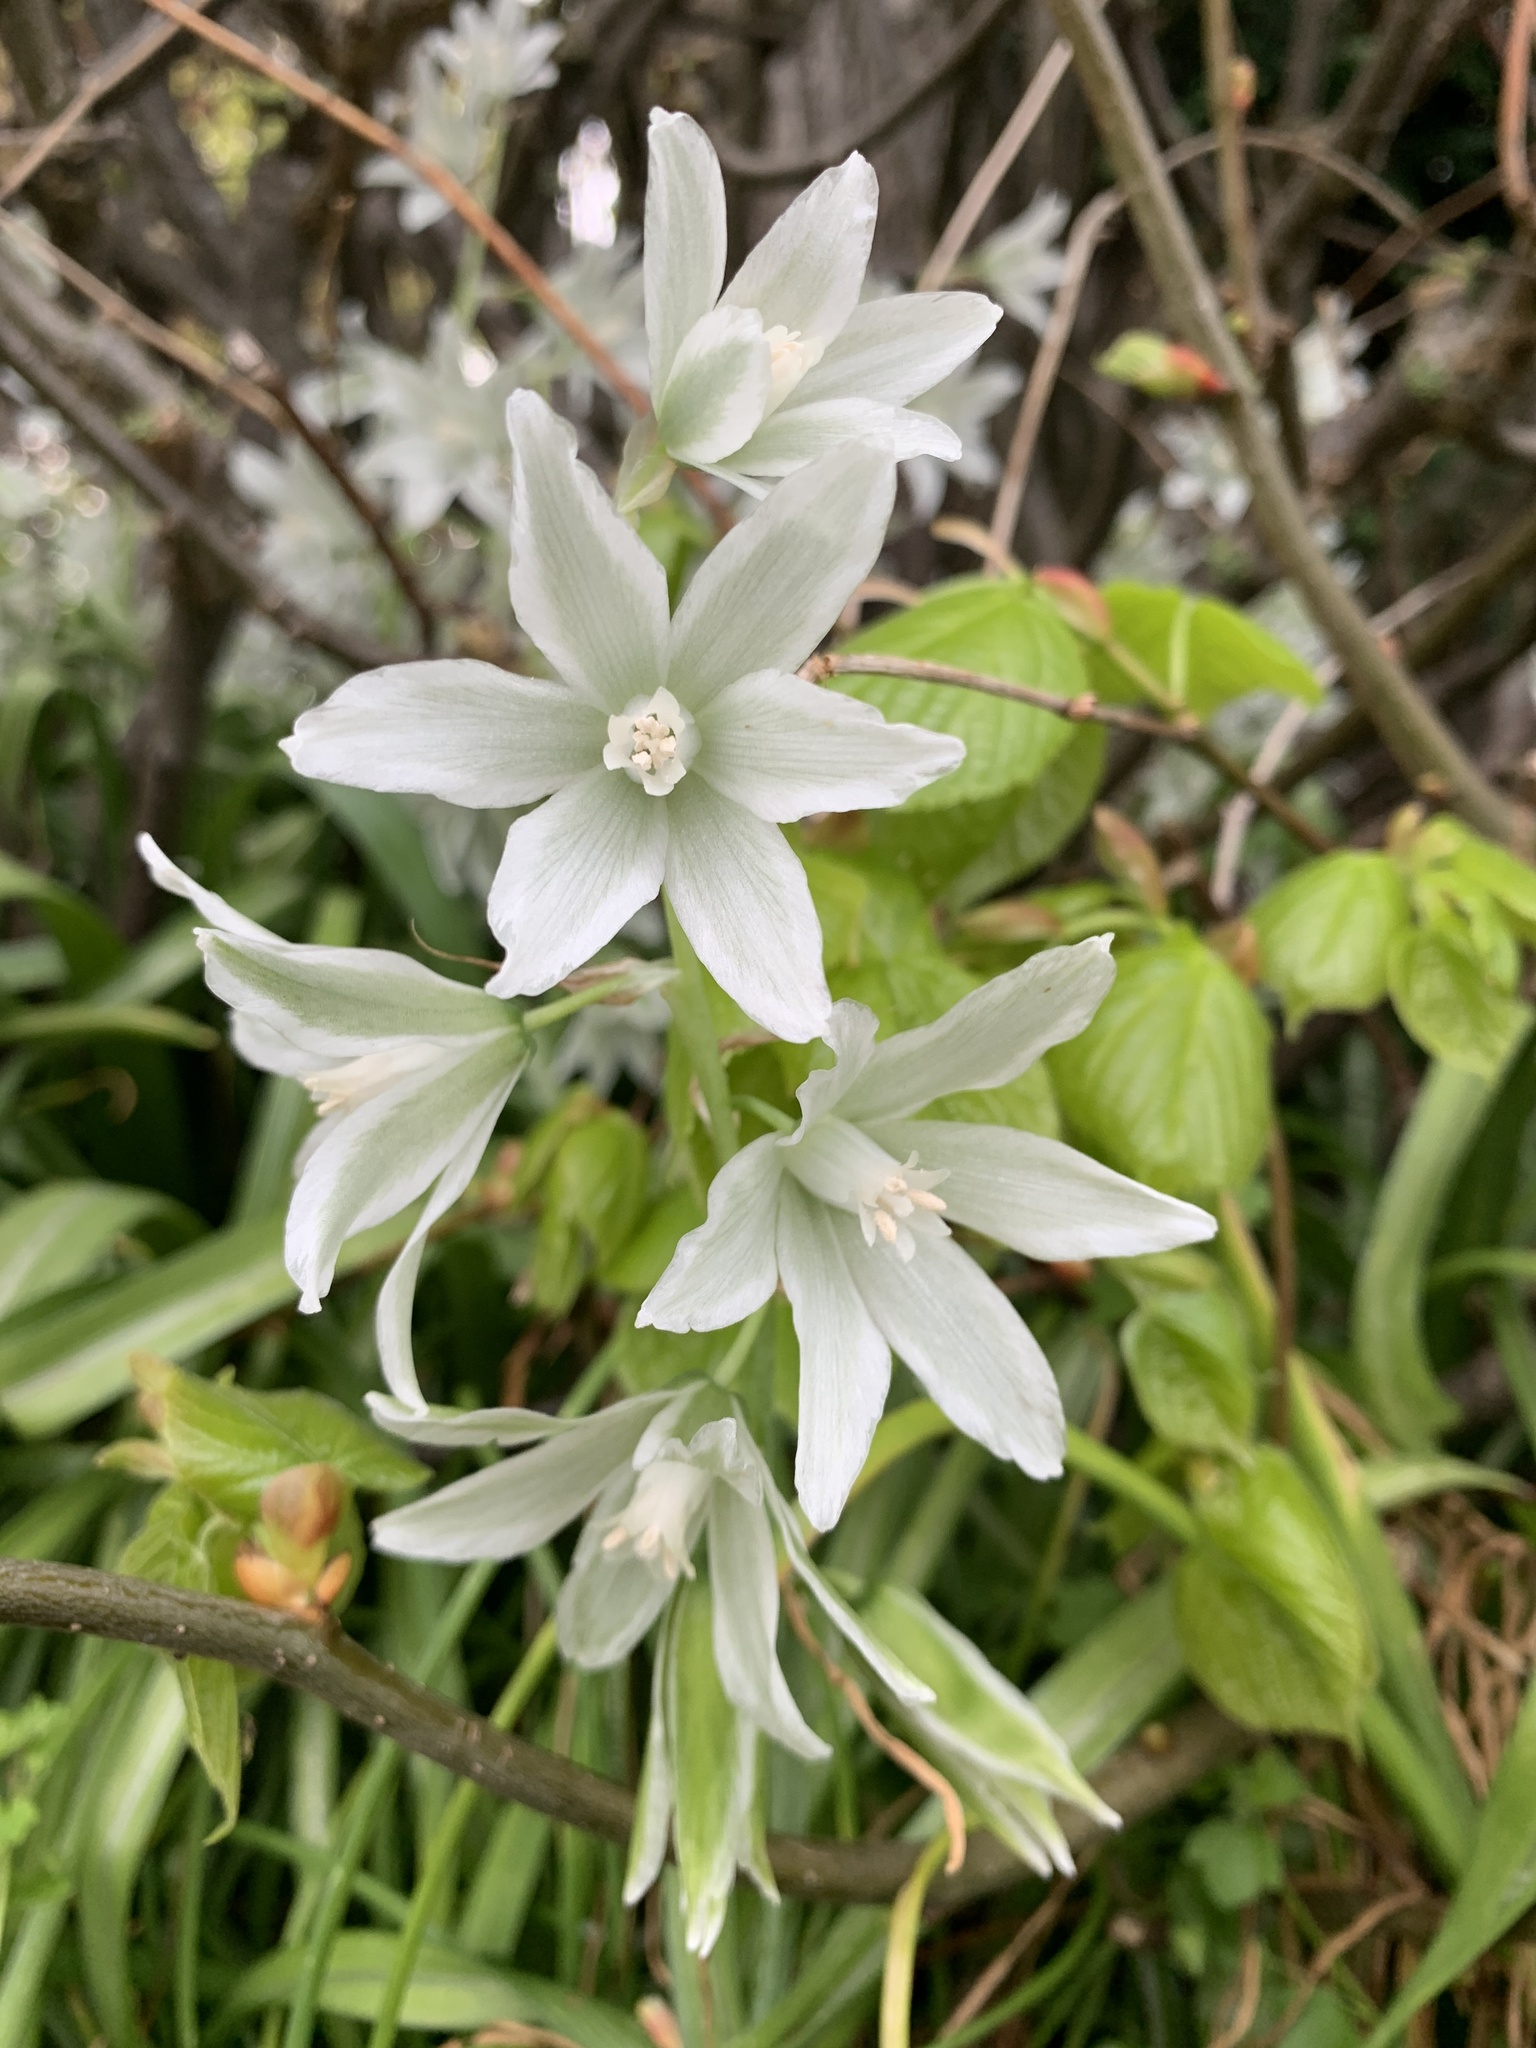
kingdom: Plantae
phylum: Tracheophyta
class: Liliopsida
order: Asparagales
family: Asparagaceae
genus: Ornithogalum
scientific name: Ornithogalum nutans
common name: Drooping star-of-bethlehem
